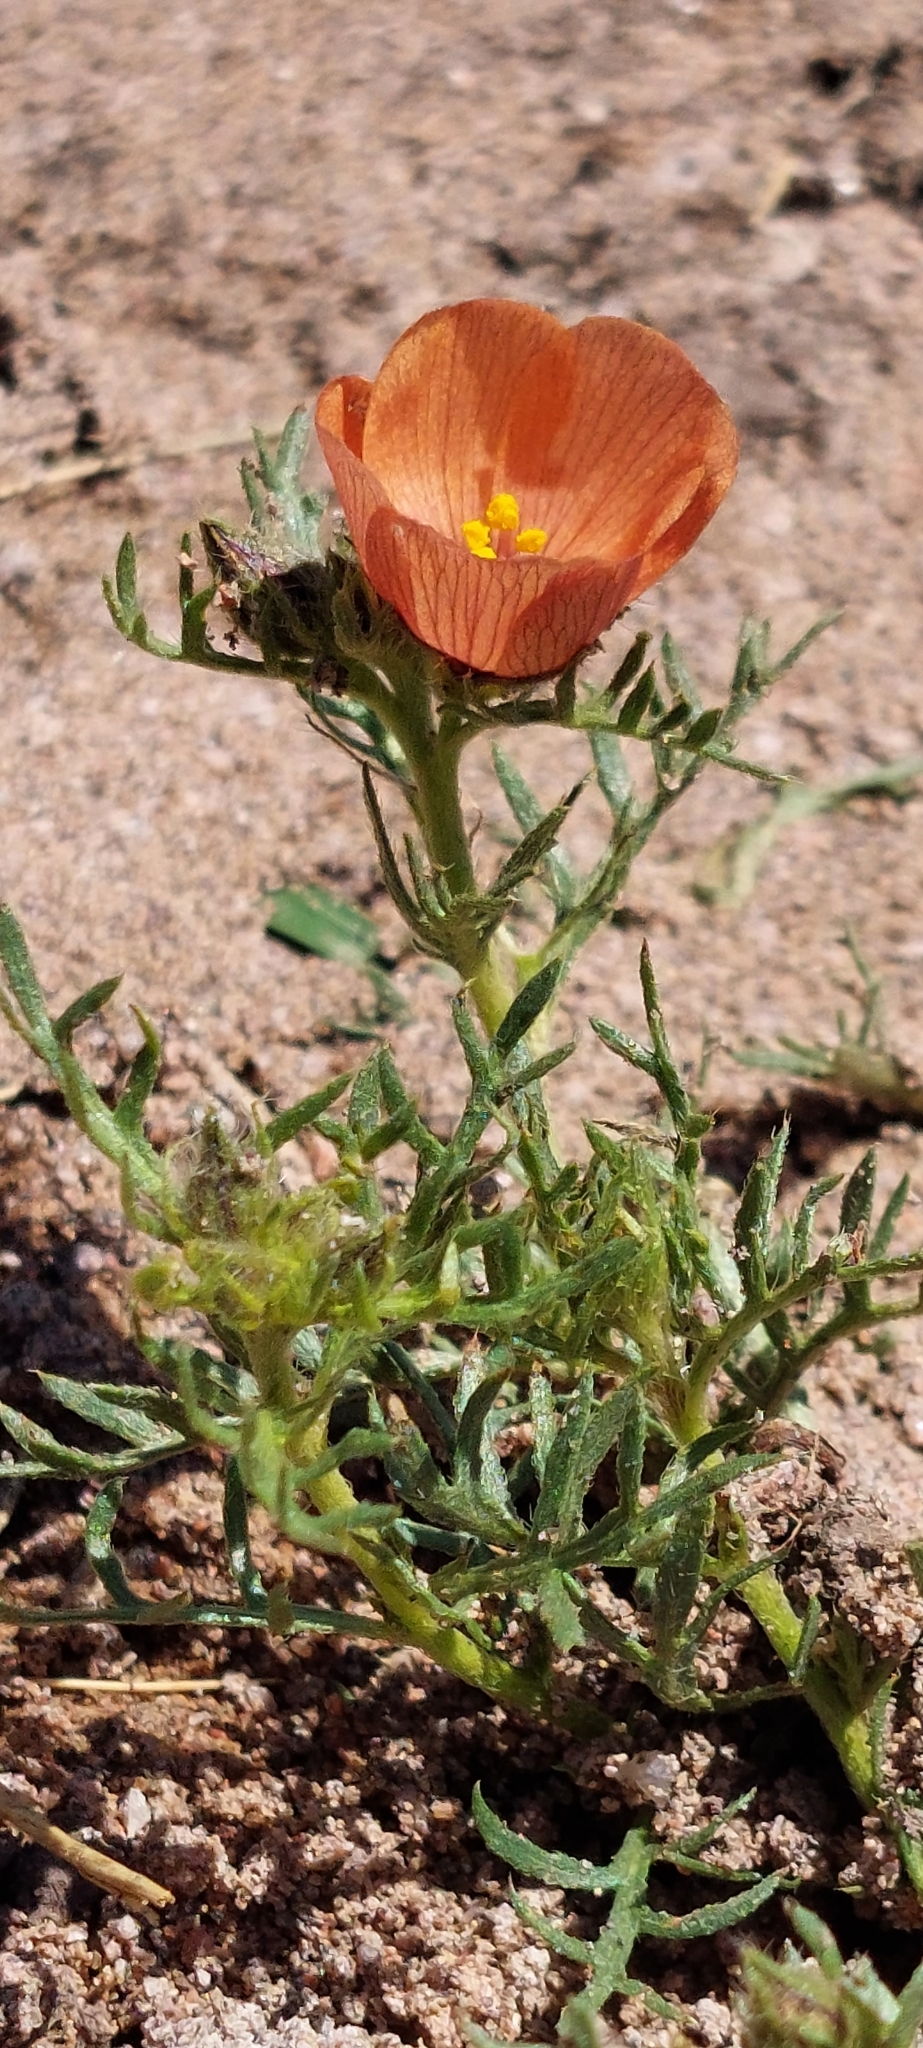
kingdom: Plantae
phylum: Tracheophyta
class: Magnoliopsida
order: Malpighiales
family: Turneraceae
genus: Turnera
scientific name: Turnera sidoides
